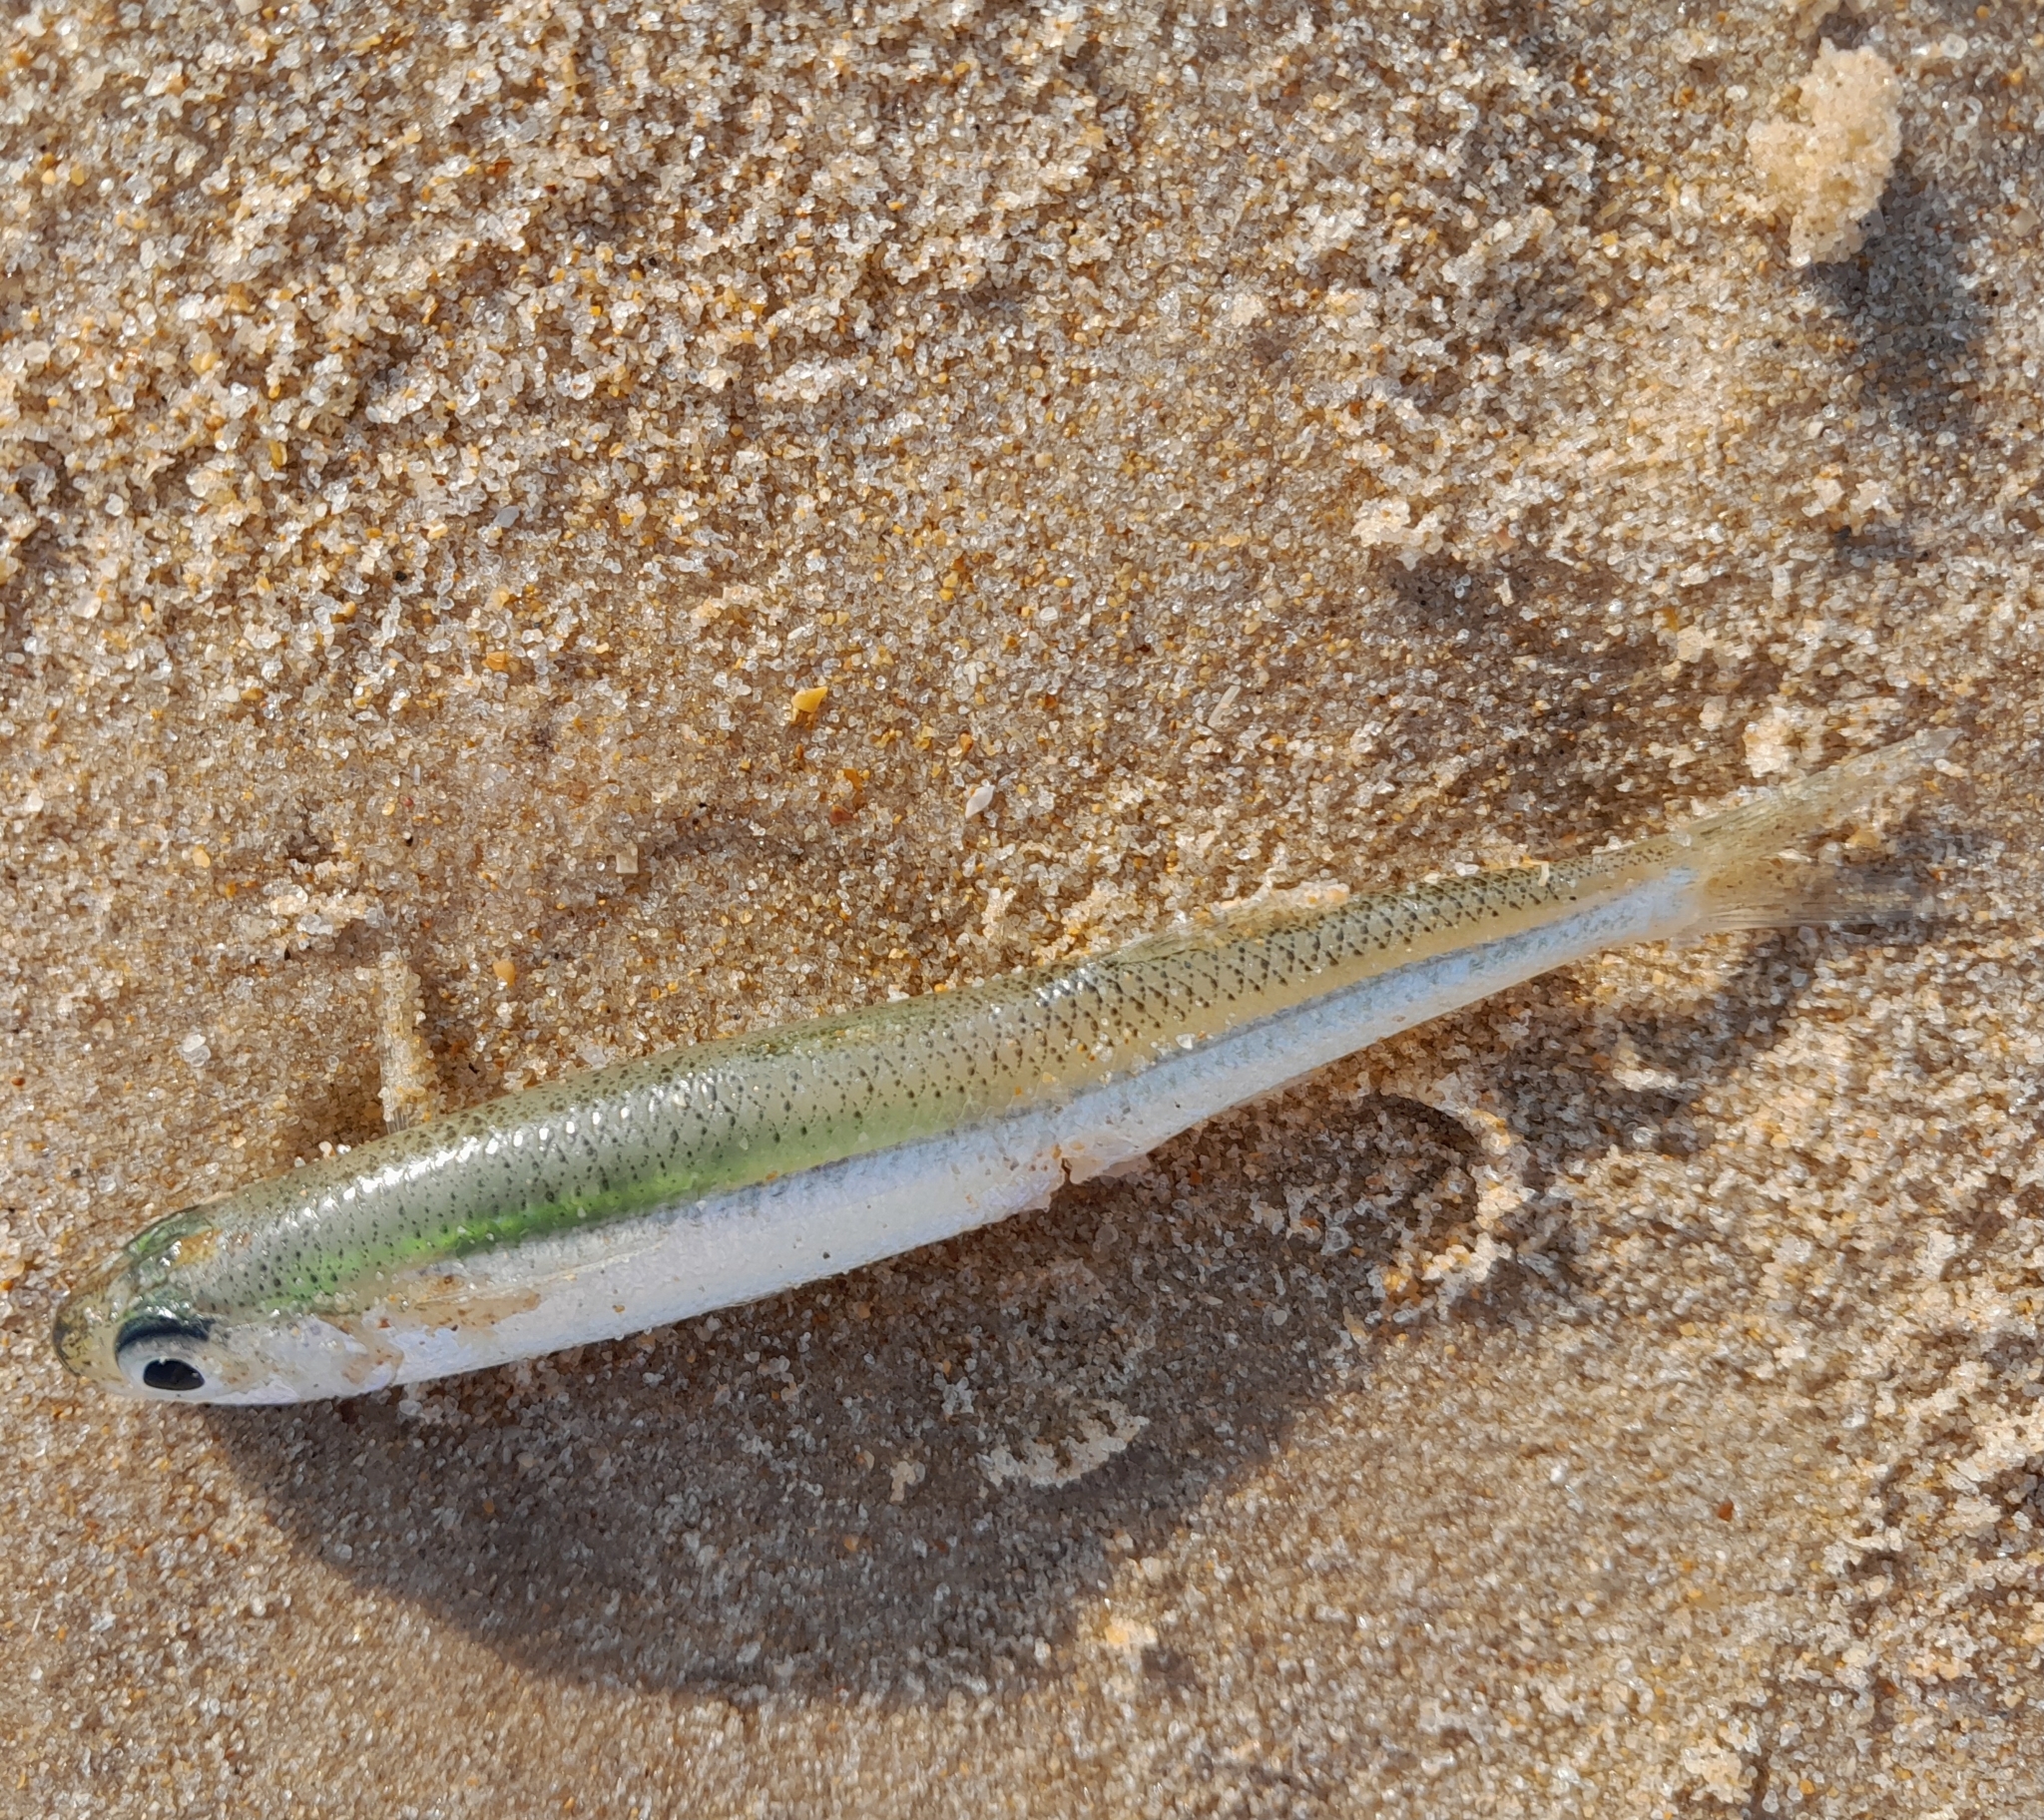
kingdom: Animalia
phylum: Chordata
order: Atheriniformes
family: Atherinidae
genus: Atherina
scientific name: Atherina presbyter
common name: Sand smelt
